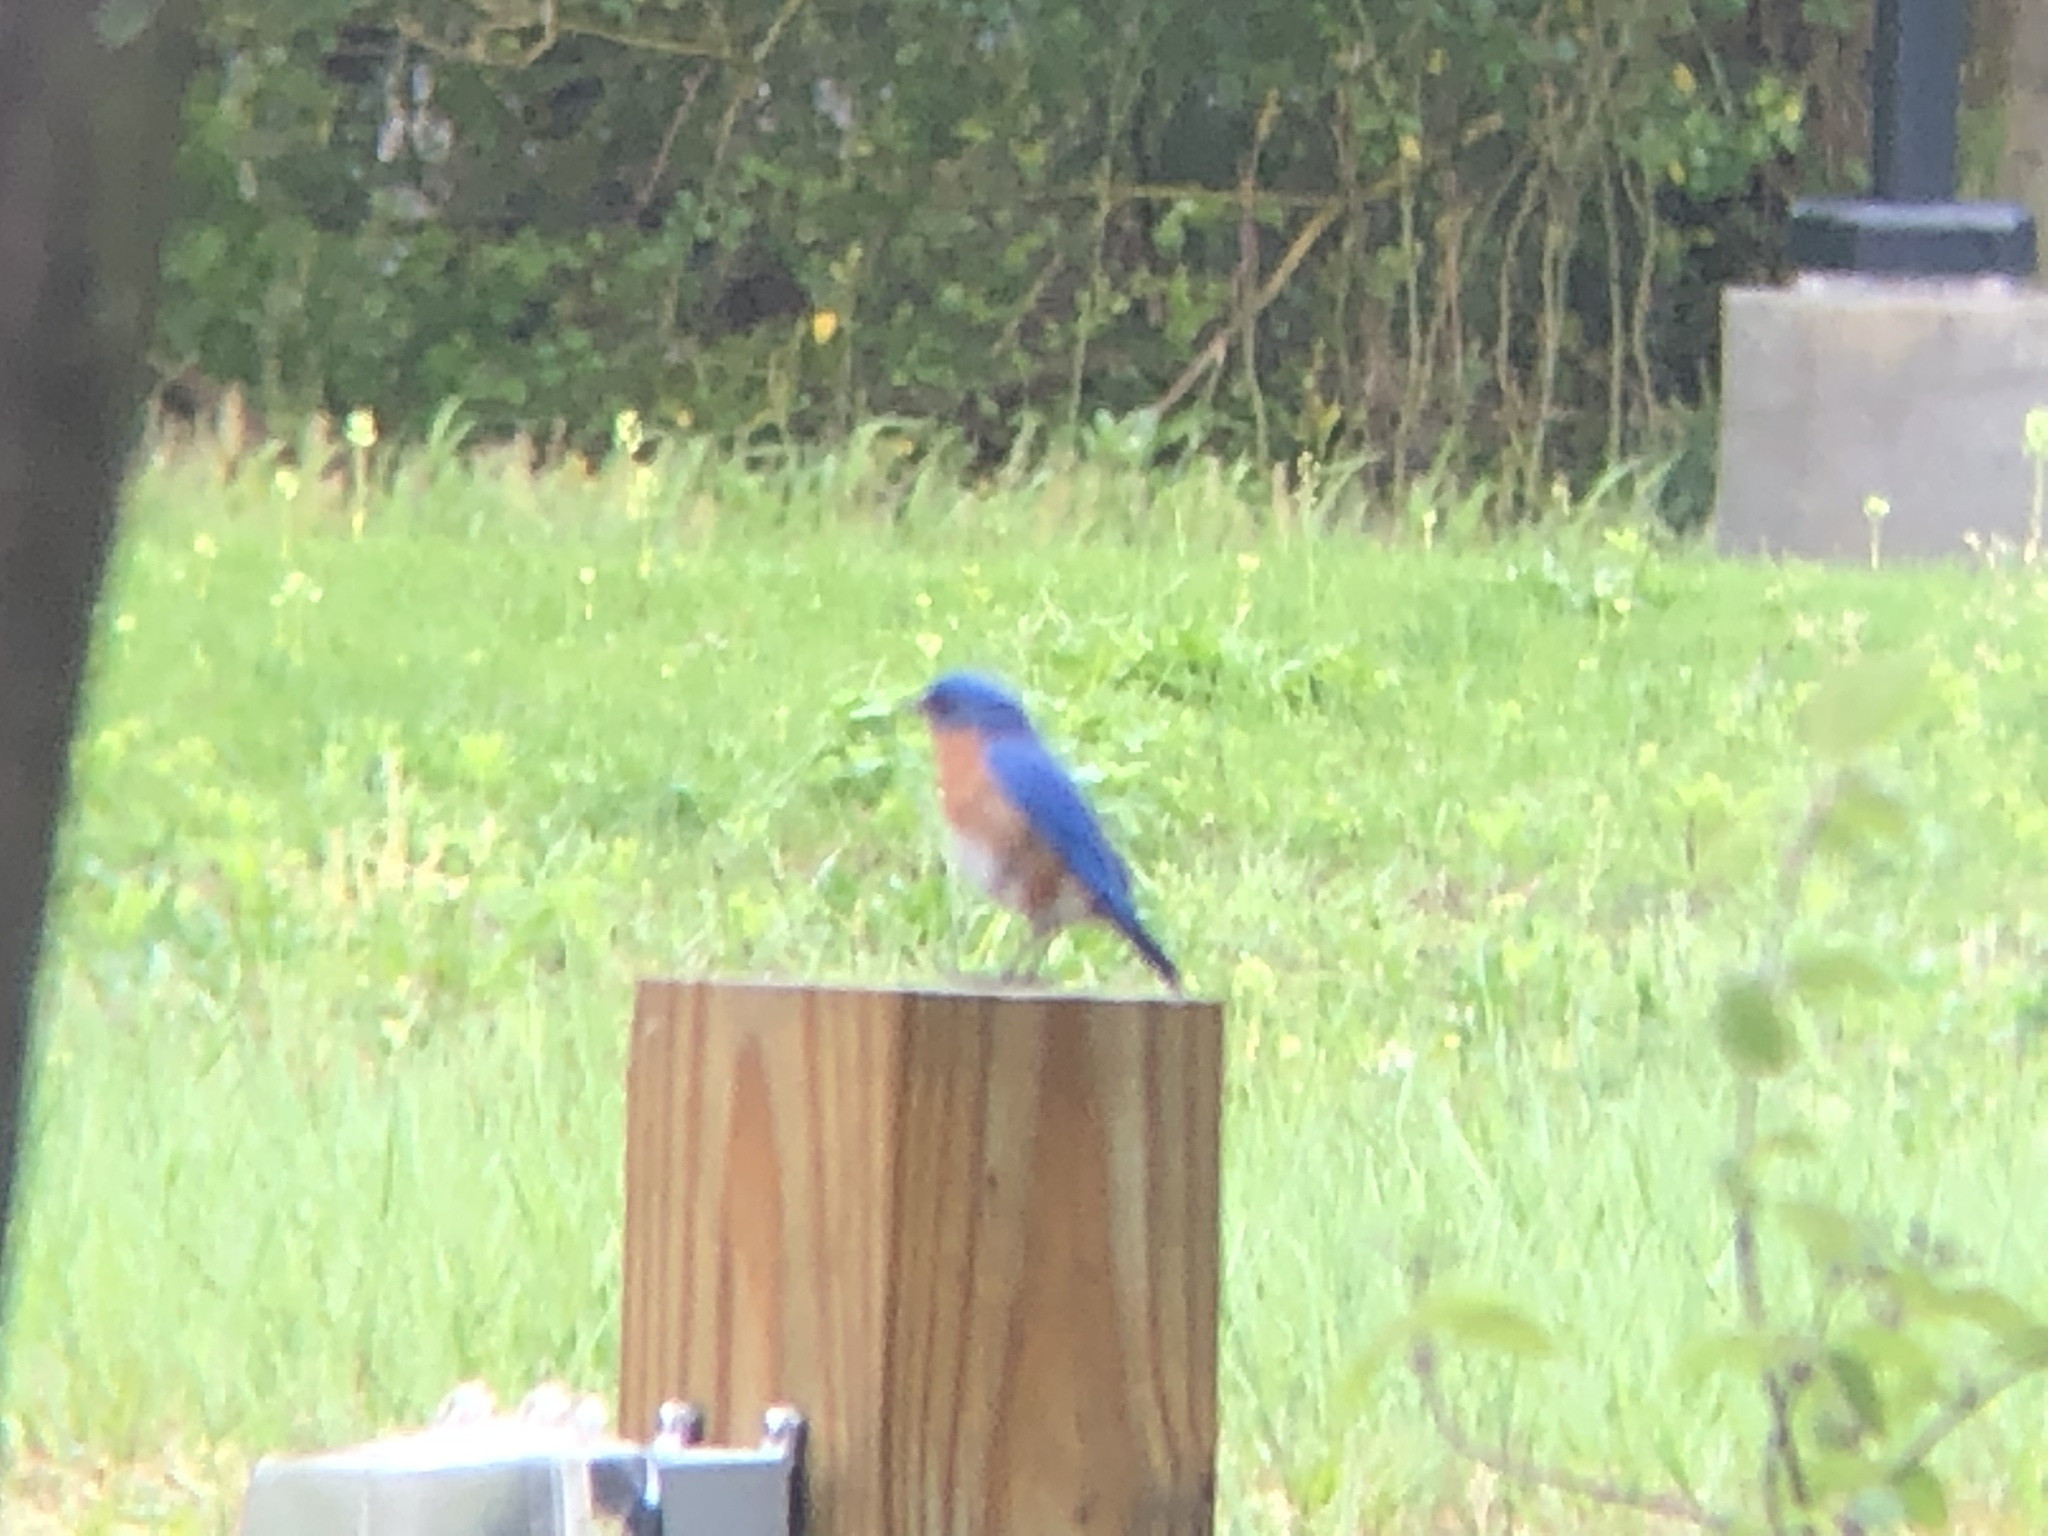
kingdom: Animalia
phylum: Chordata
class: Aves
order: Passeriformes
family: Turdidae
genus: Sialia
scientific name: Sialia sialis
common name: Eastern bluebird
